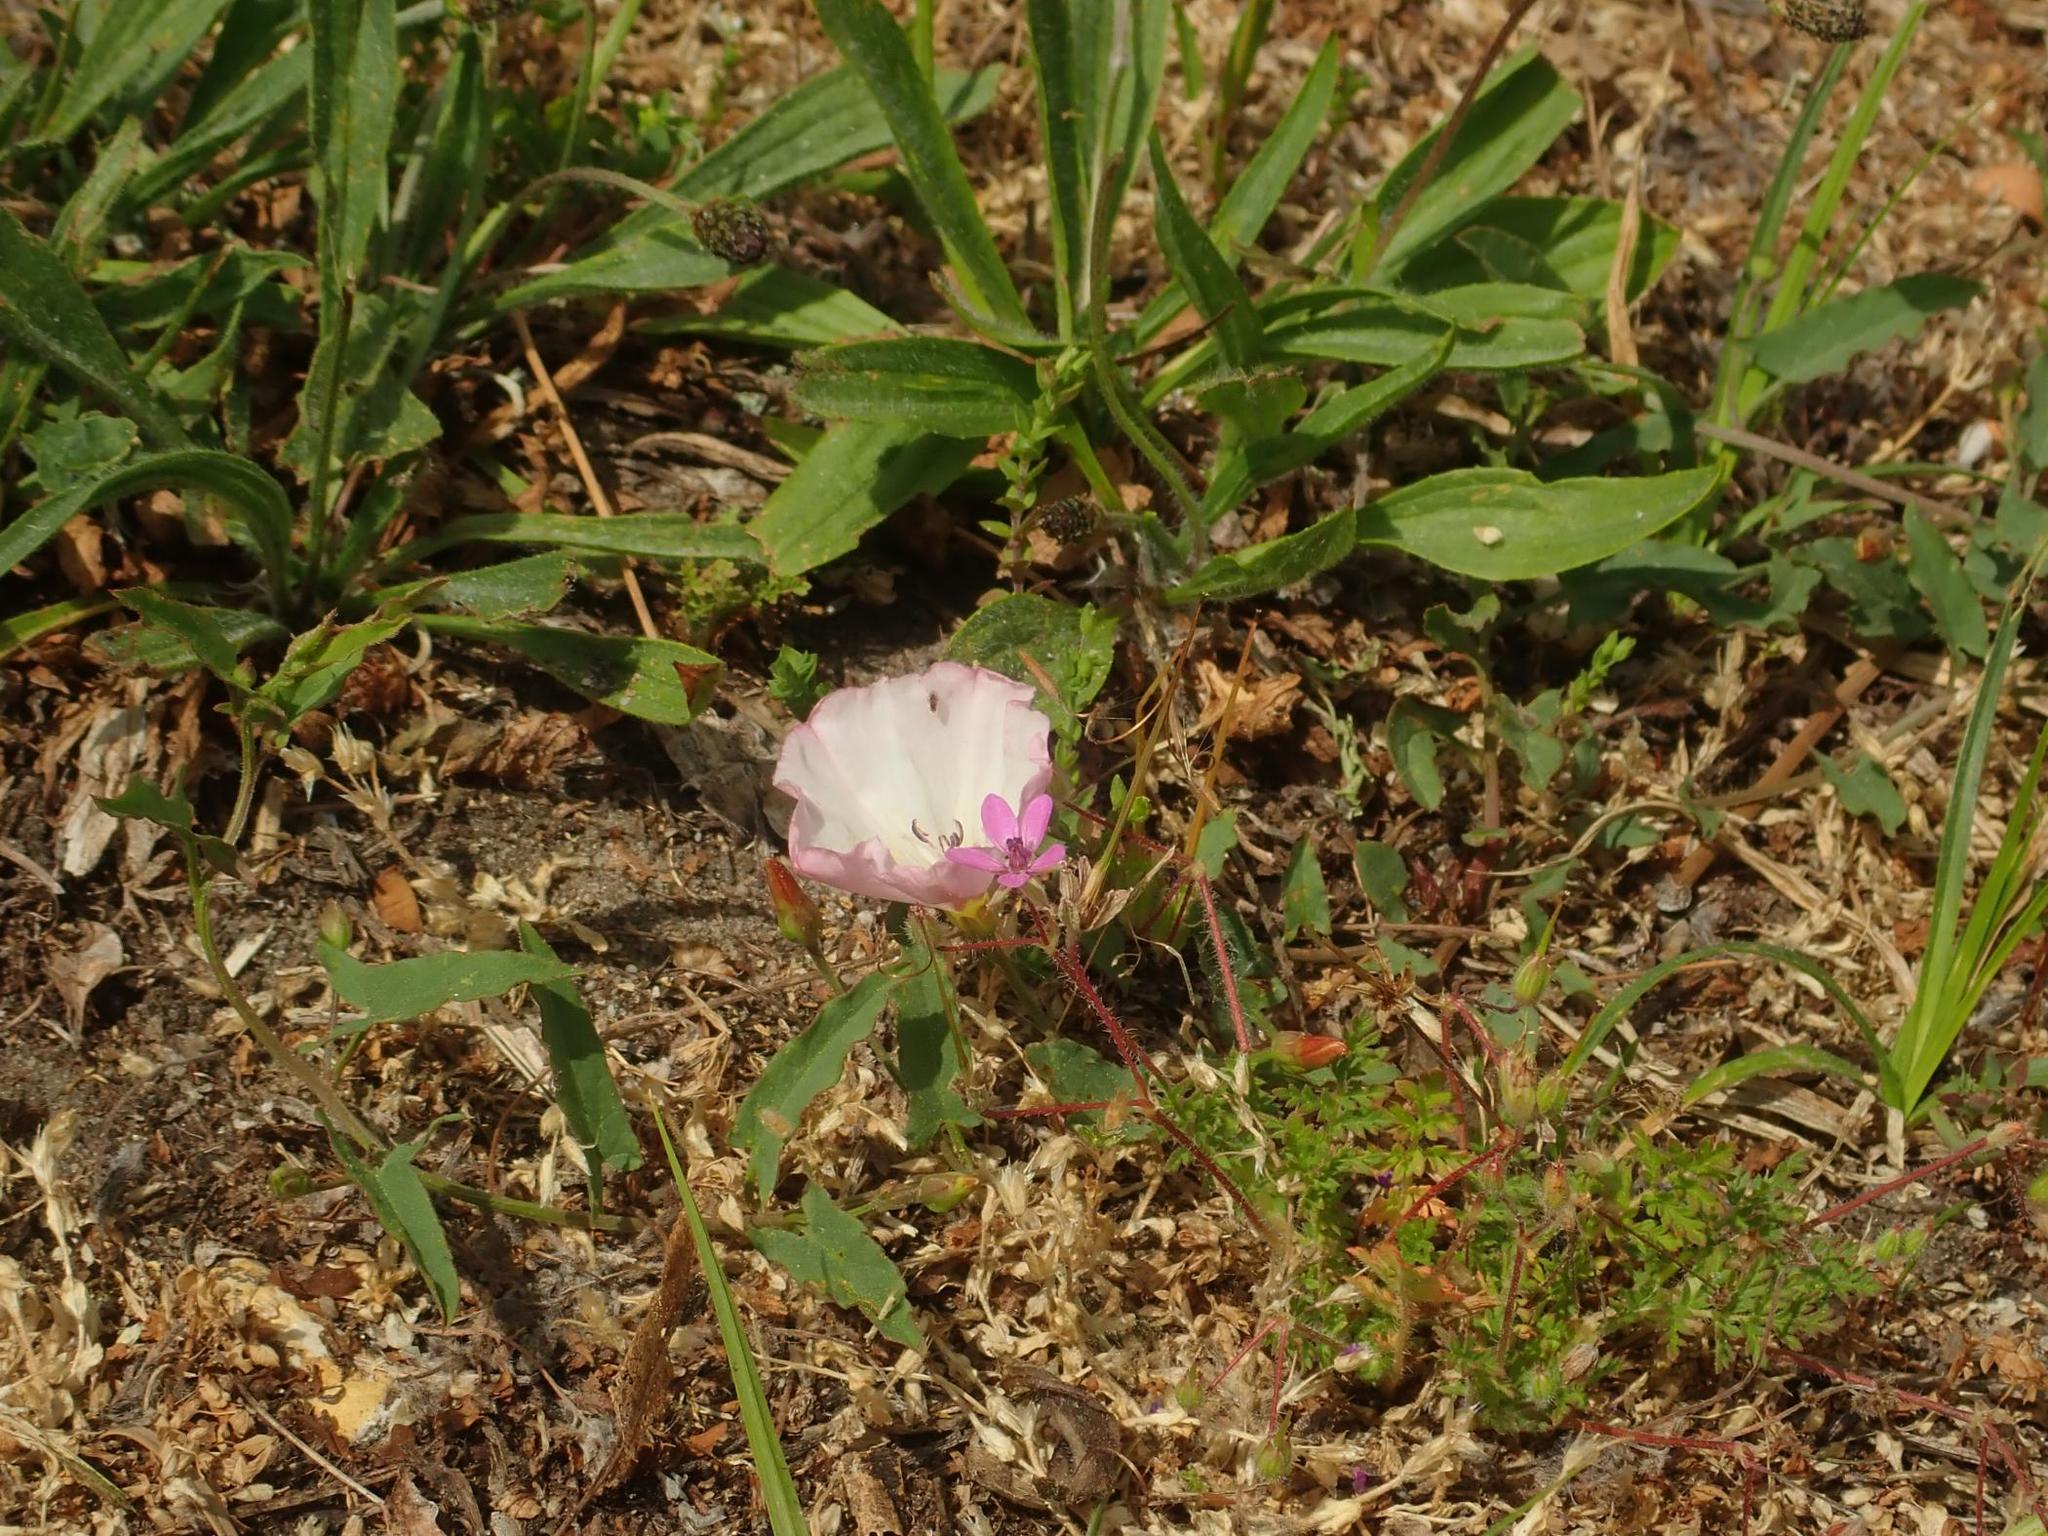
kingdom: Plantae
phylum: Tracheophyta
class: Magnoliopsida
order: Solanales
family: Convolvulaceae
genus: Convolvulus
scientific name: Convolvulus arvensis
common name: Field bindweed
